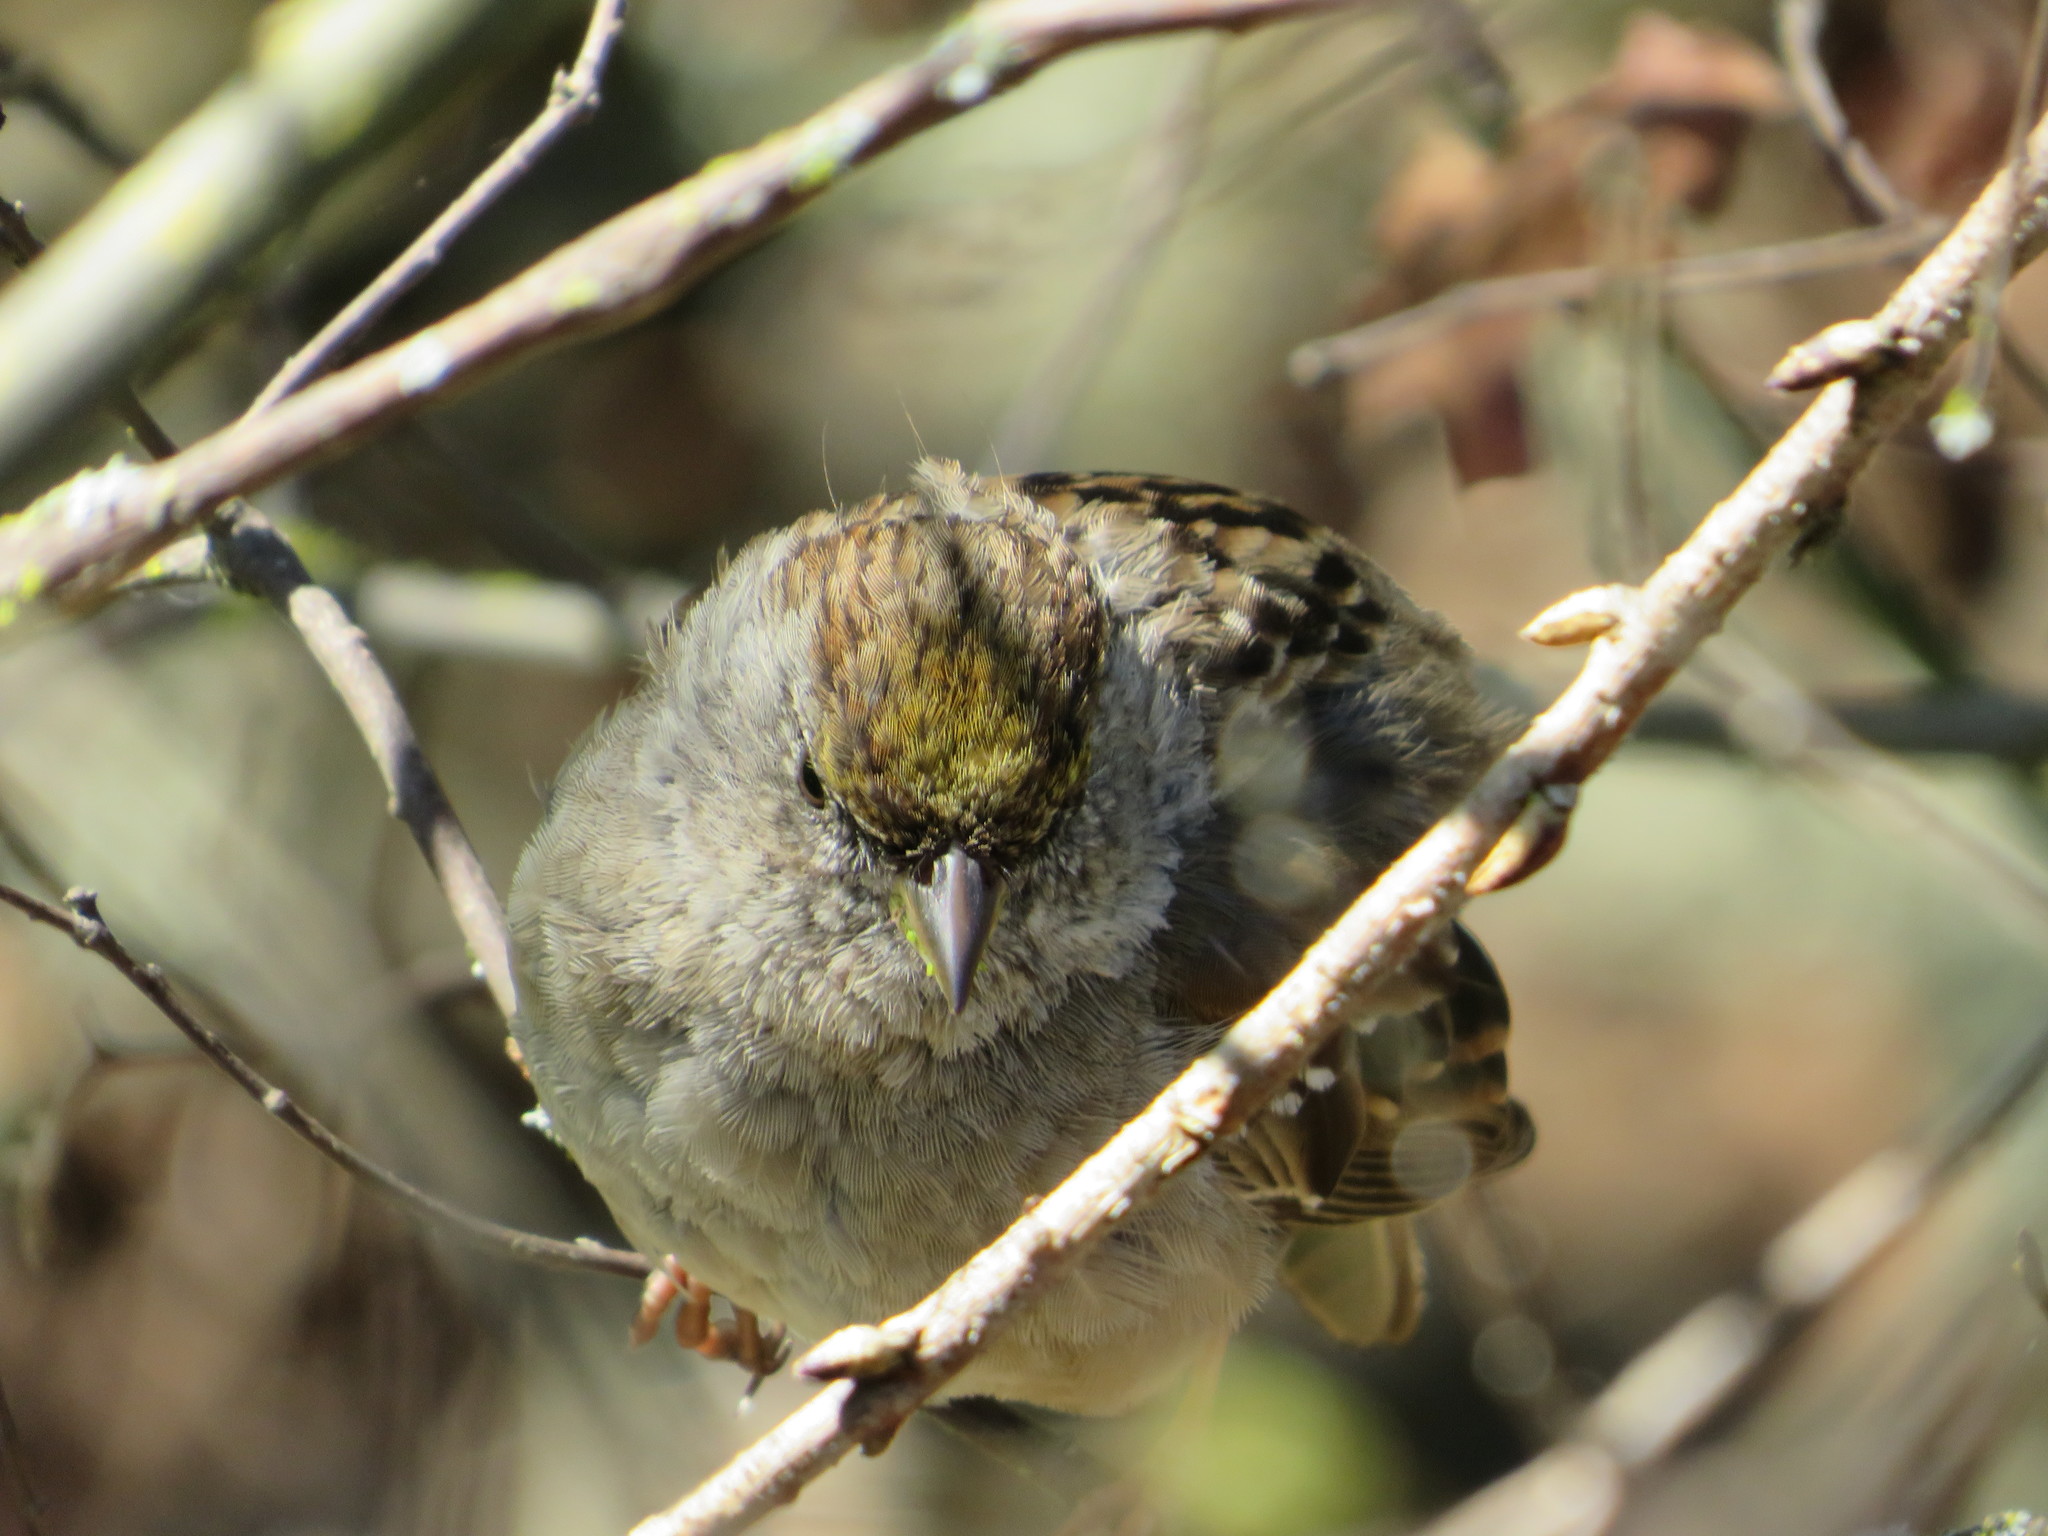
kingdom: Animalia
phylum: Chordata
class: Aves
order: Passeriformes
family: Passerellidae
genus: Zonotrichia
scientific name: Zonotrichia atricapilla
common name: Golden-crowned sparrow
